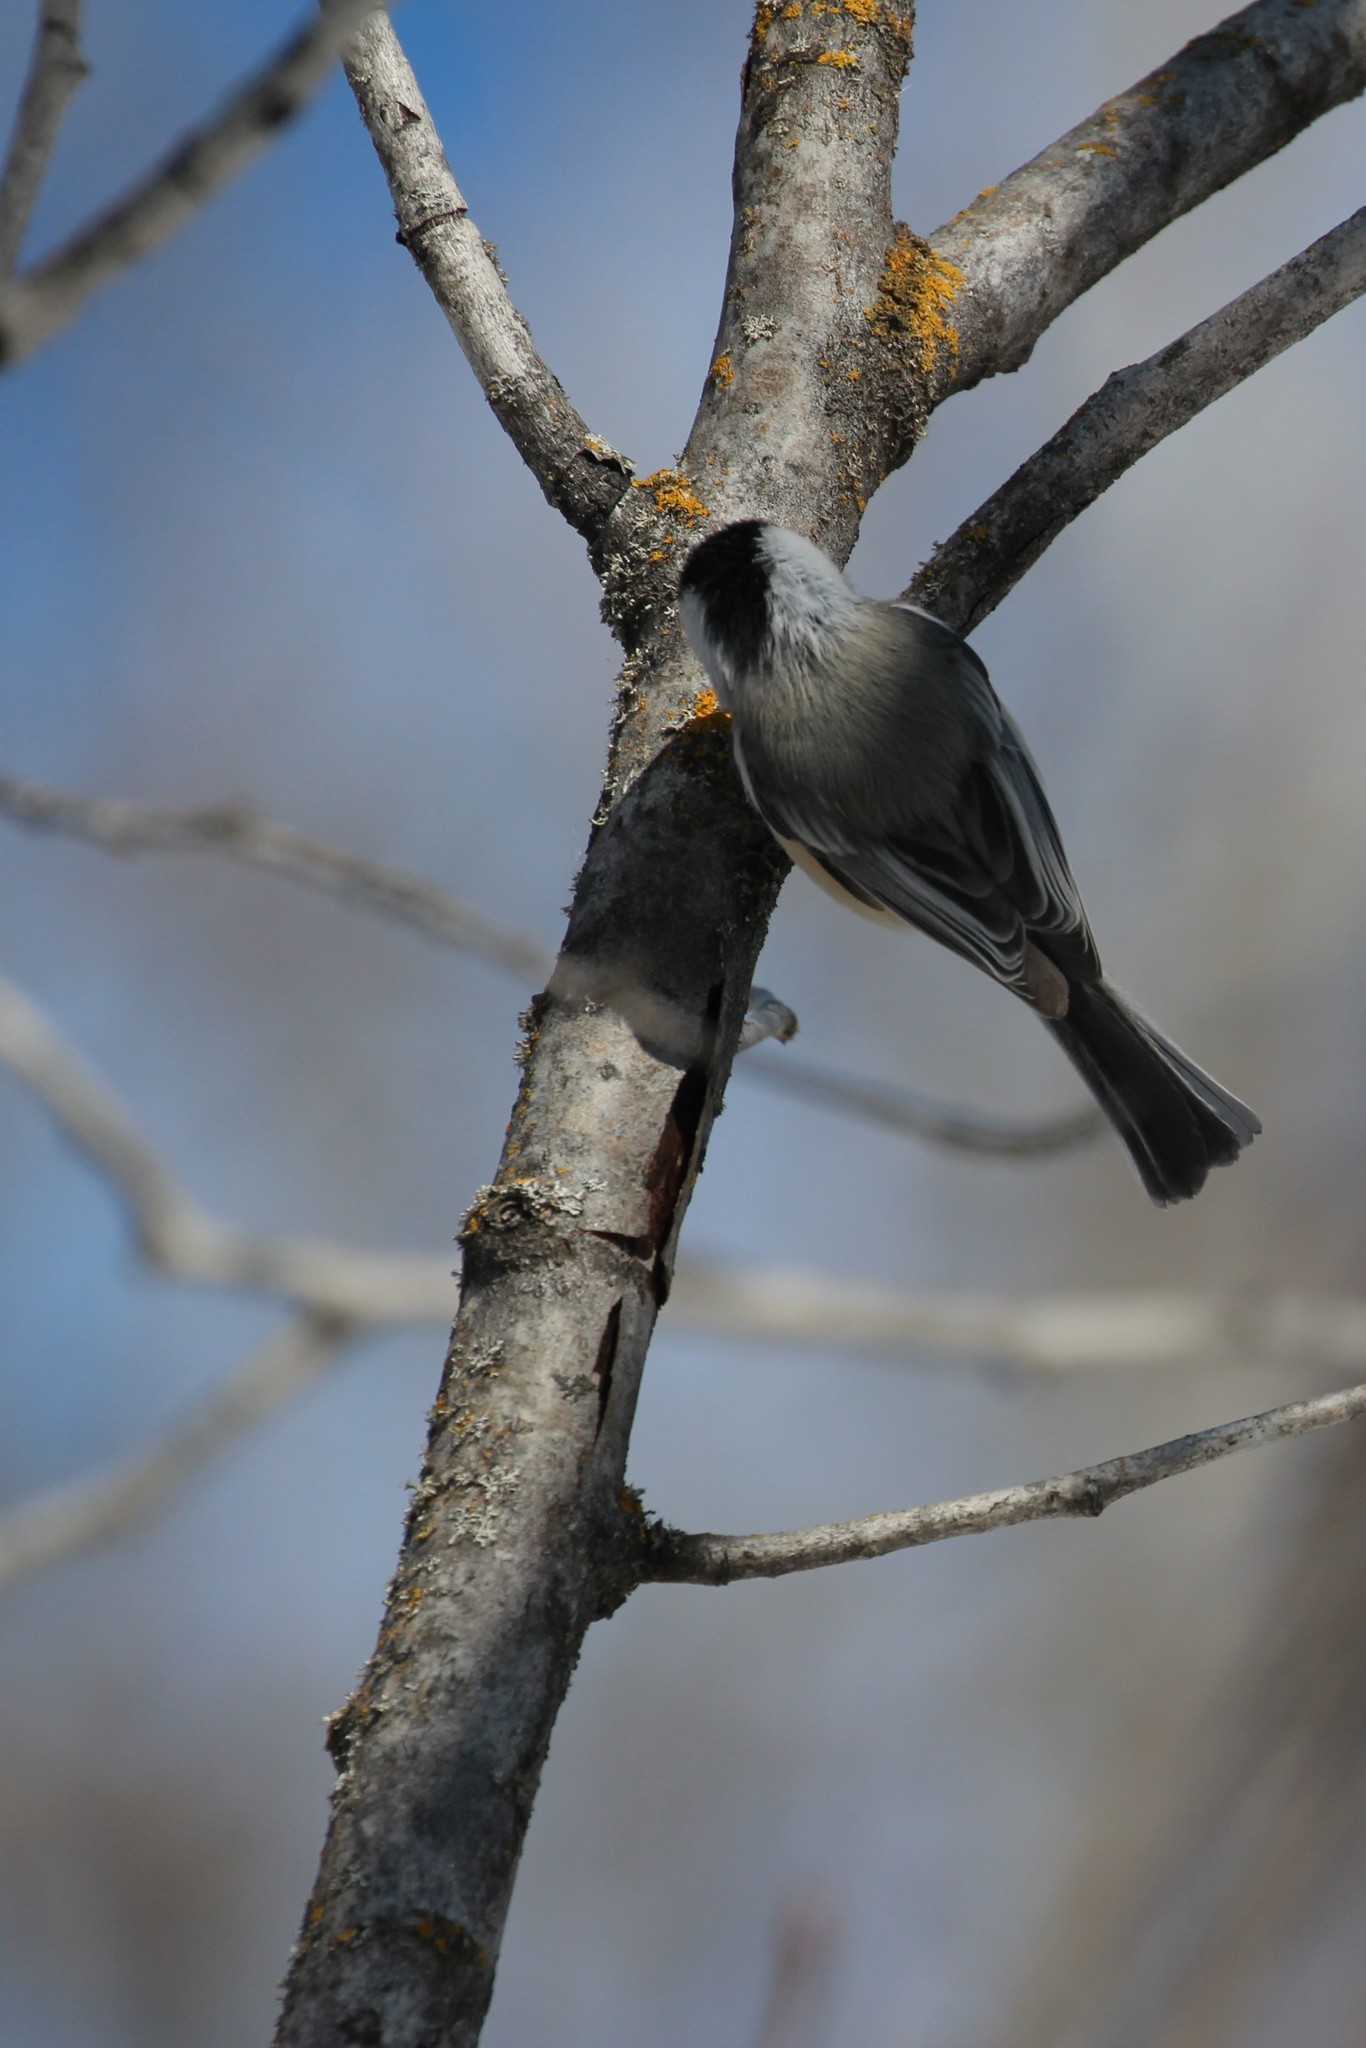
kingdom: Animalia
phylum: Chordata
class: Aves
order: Passeriformes
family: Paridae
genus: Poecile
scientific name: Poecile atricapillus
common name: Black-capped chickadee
